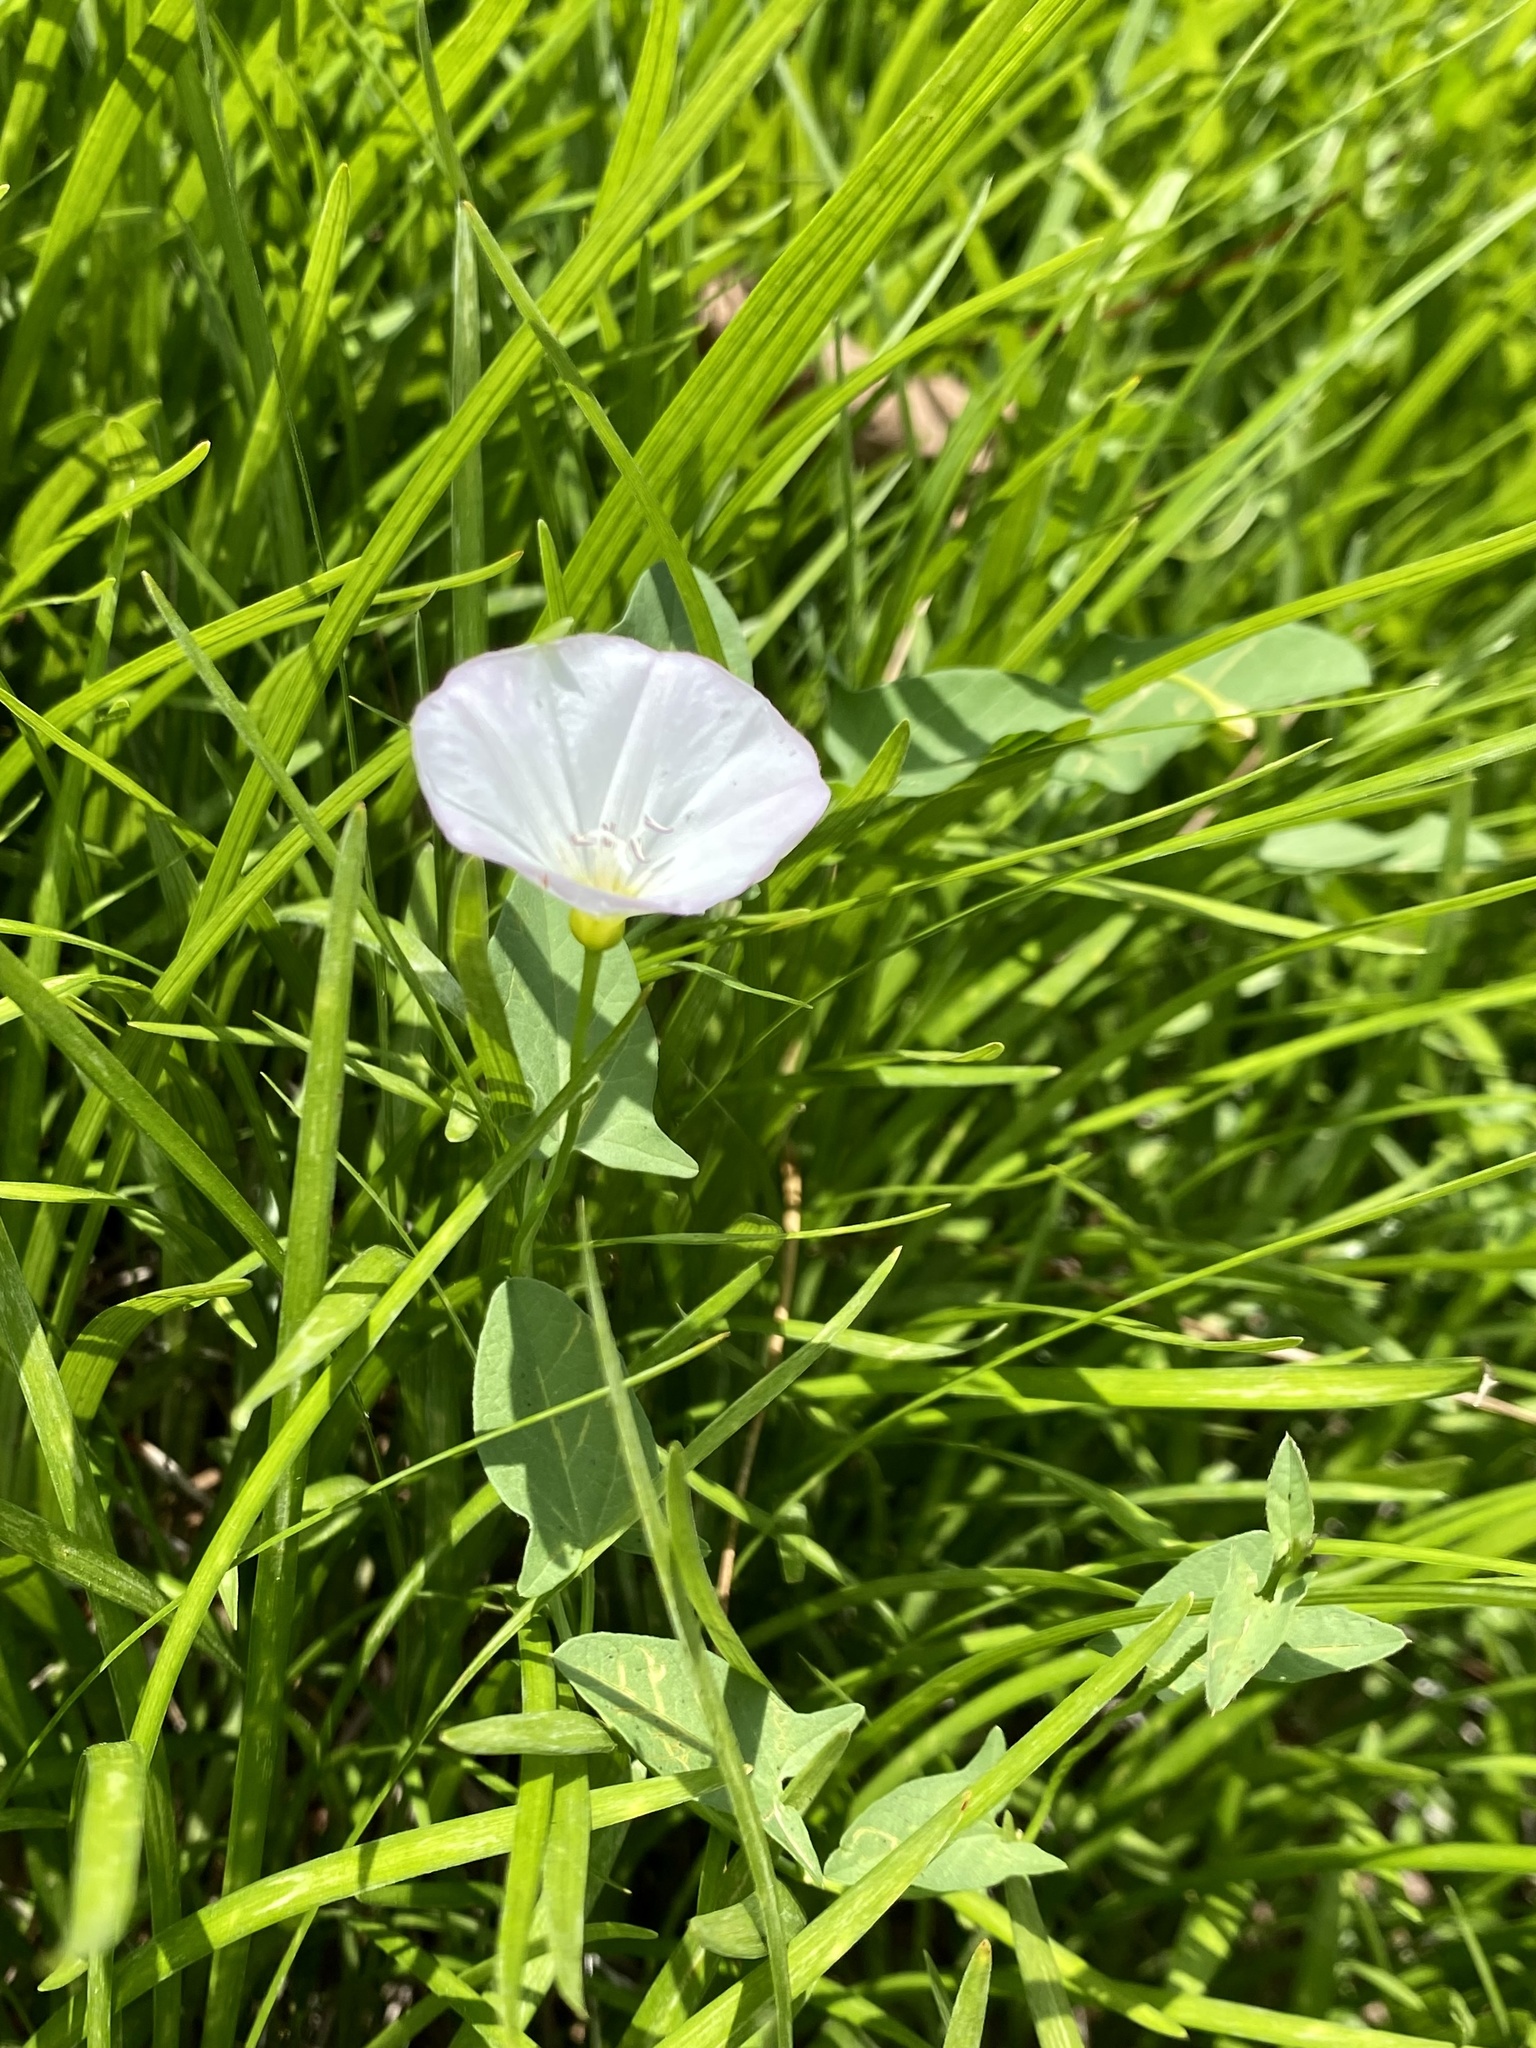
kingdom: Plantae
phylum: Tracheophyta
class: Magnoliopsida
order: Solanales
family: Convolvulaceae
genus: Convolvulus
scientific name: Convolvulus arvensis
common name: Field bindweed
